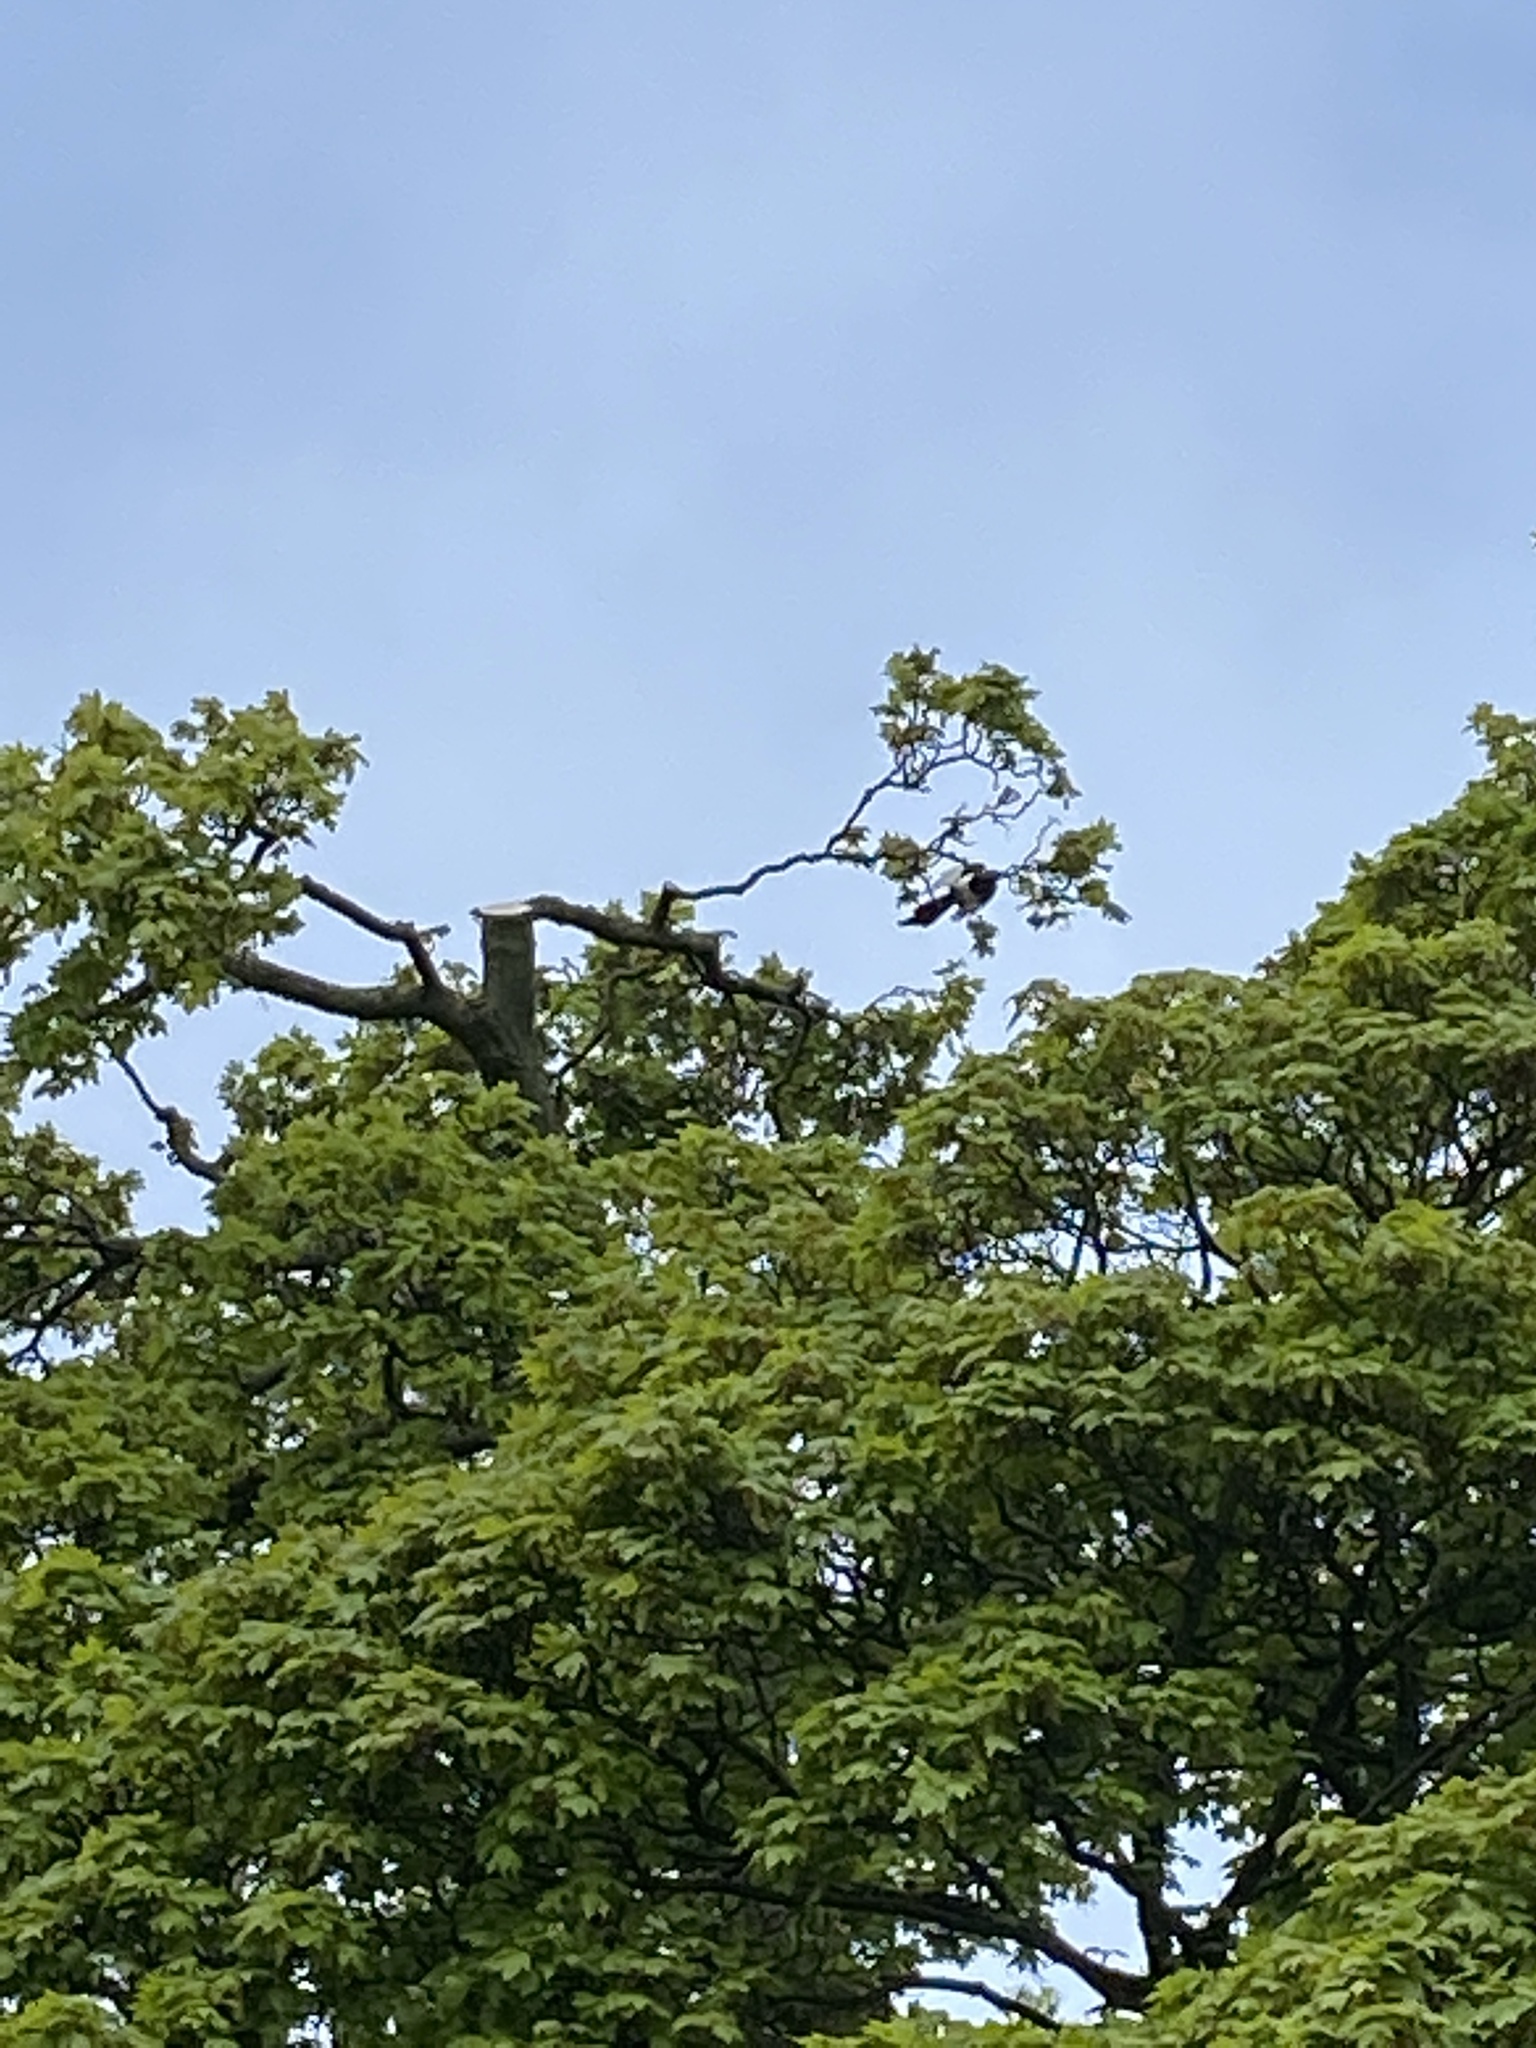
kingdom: Animalia
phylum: Chordata
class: Aves
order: Passeriformes
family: Corvidae
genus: Pica
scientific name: Pica pica
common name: Eurasian magpie
